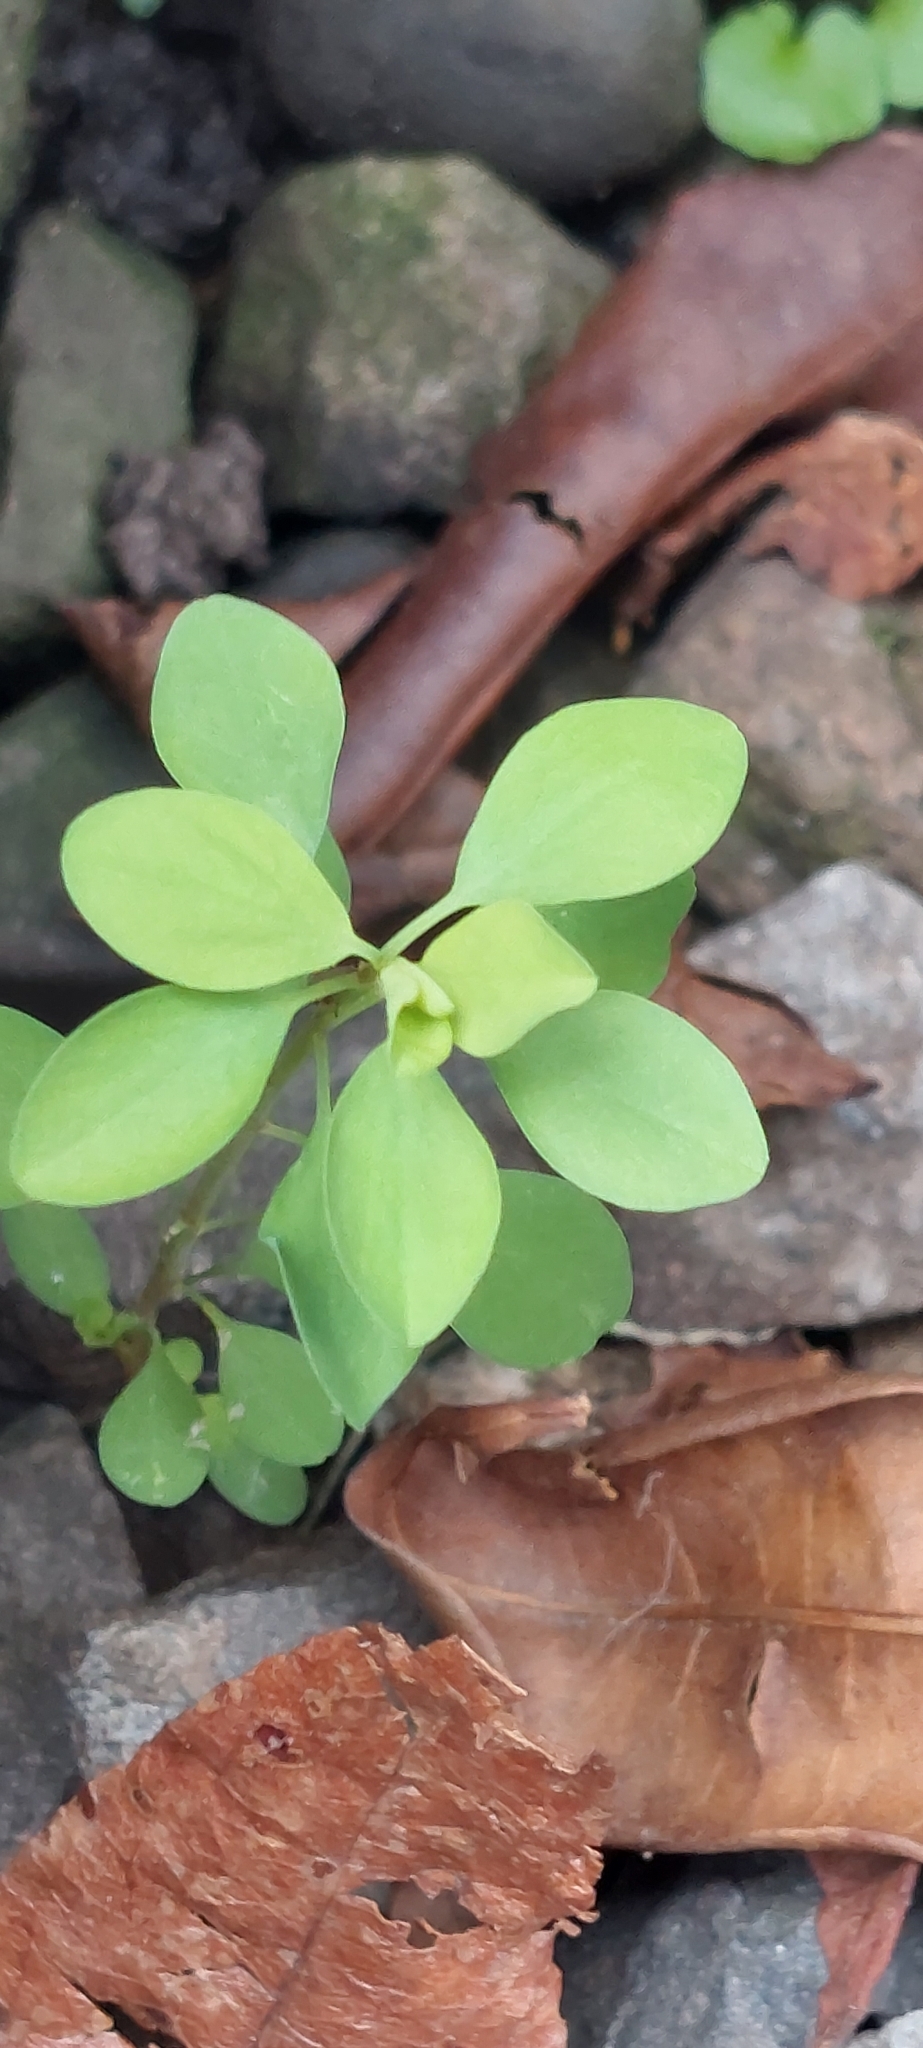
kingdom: Plantae
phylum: Tracheophyta
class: Magnoliopsida
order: Malpighiales
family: Euphorbiaceae
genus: Euphorbia
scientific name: Euphorbia peplus
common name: Petty spurge
